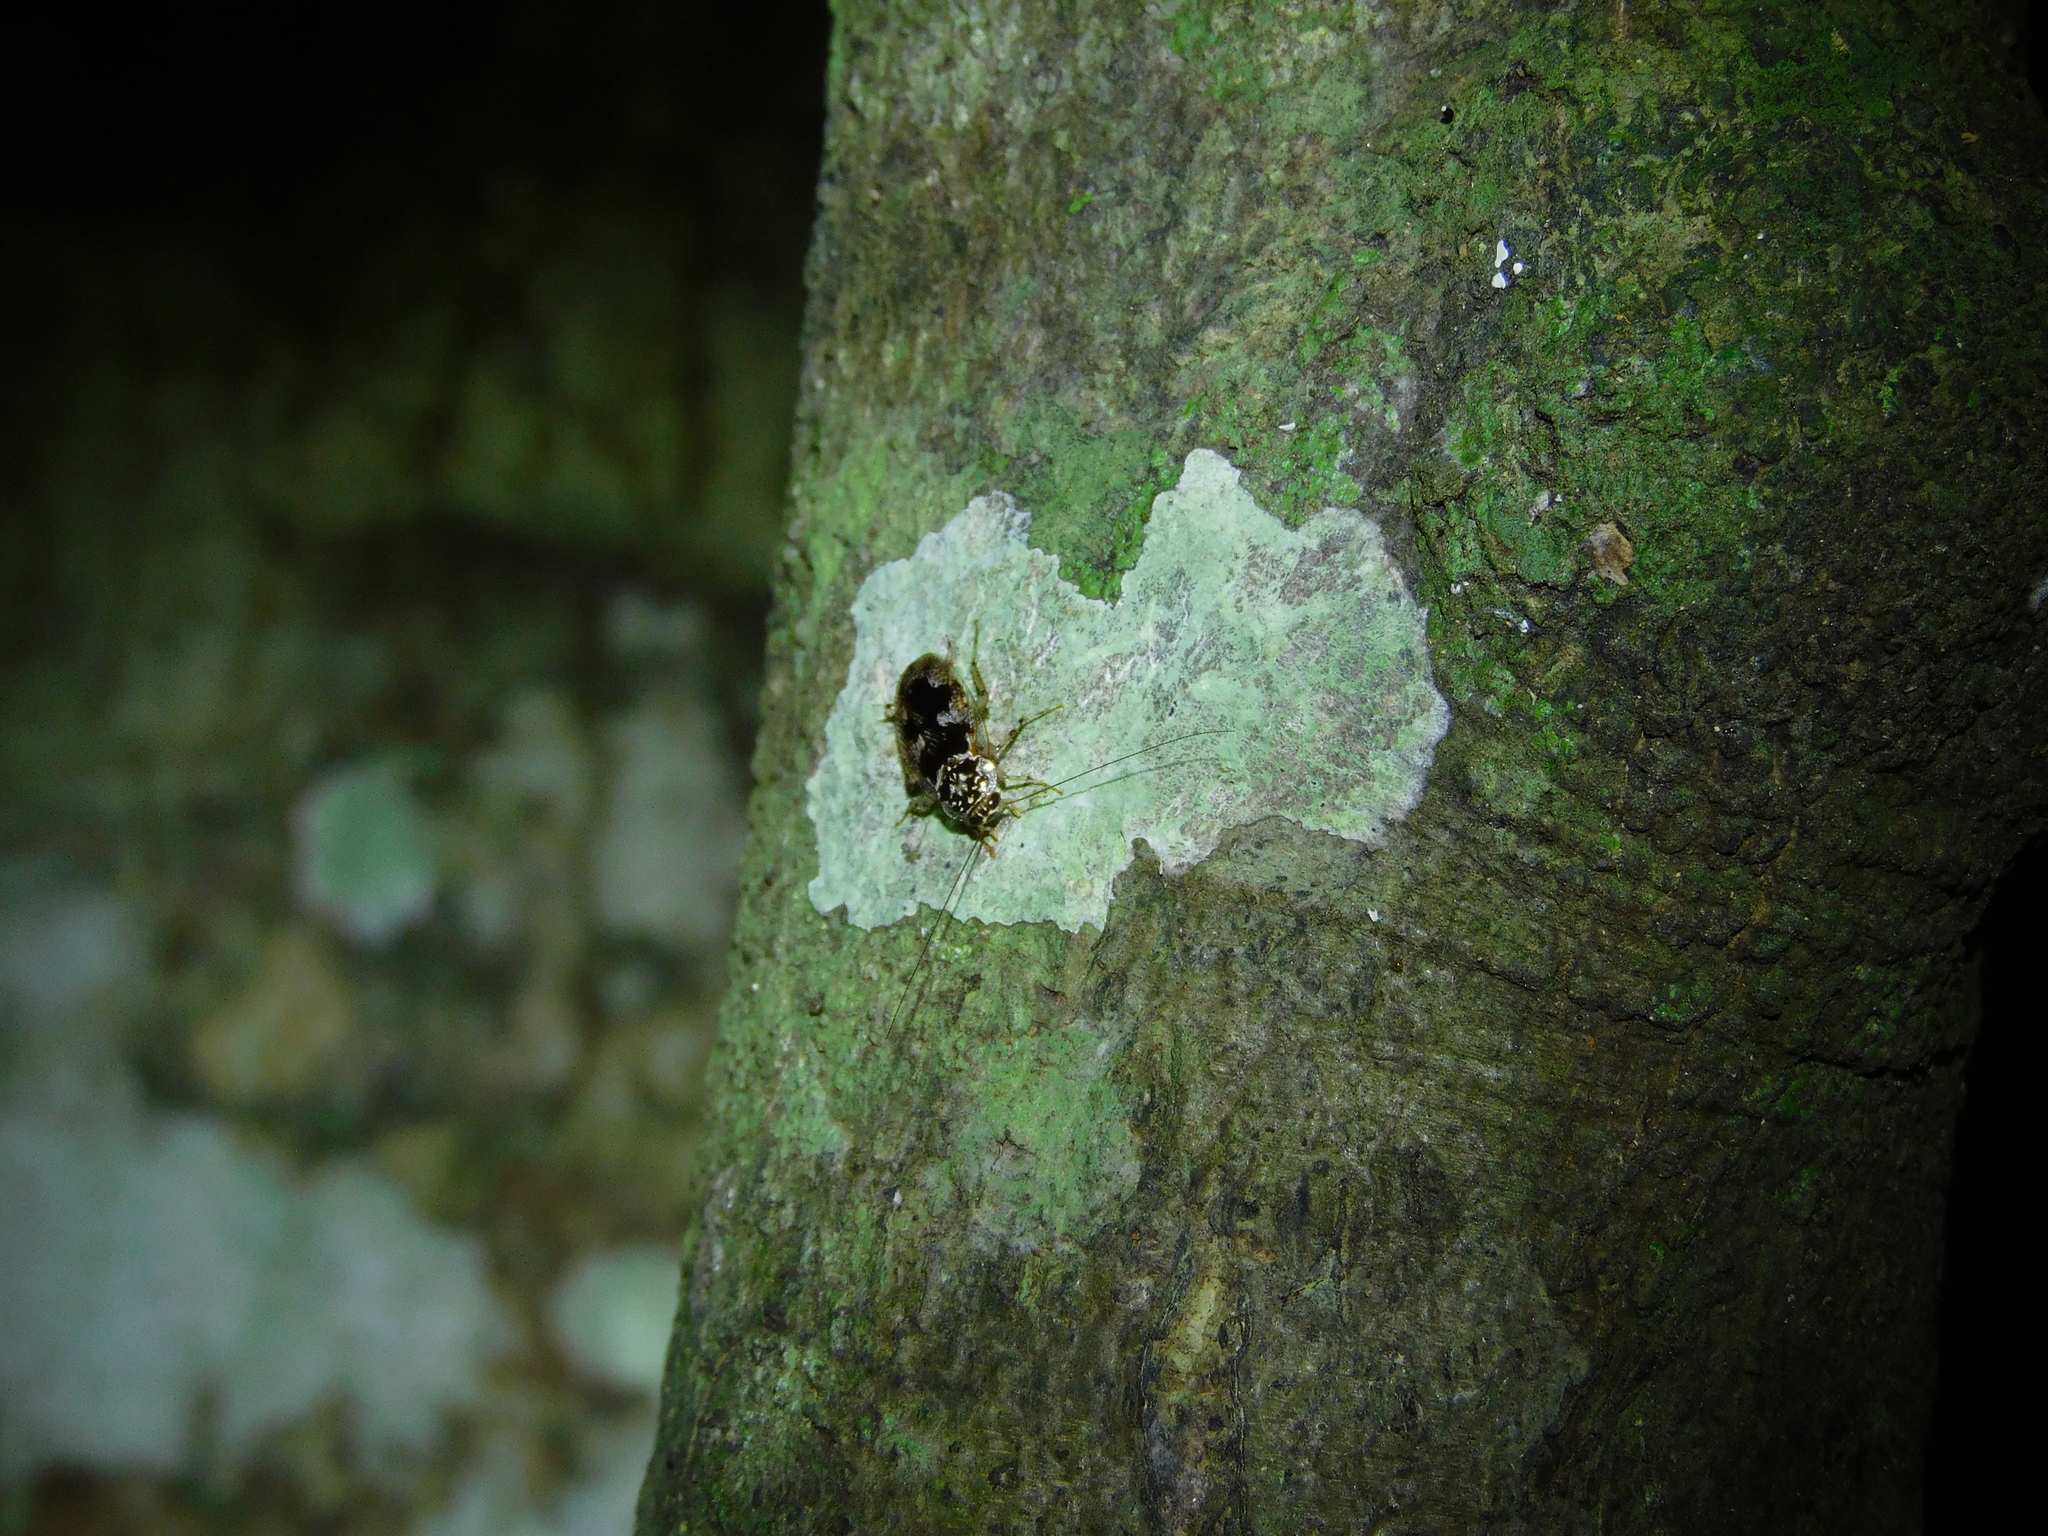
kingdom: Animalia
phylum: Arthropoda
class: Insecta
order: Blattodea
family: Ectobiidae
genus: Allacta
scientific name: Allacta australiensis
